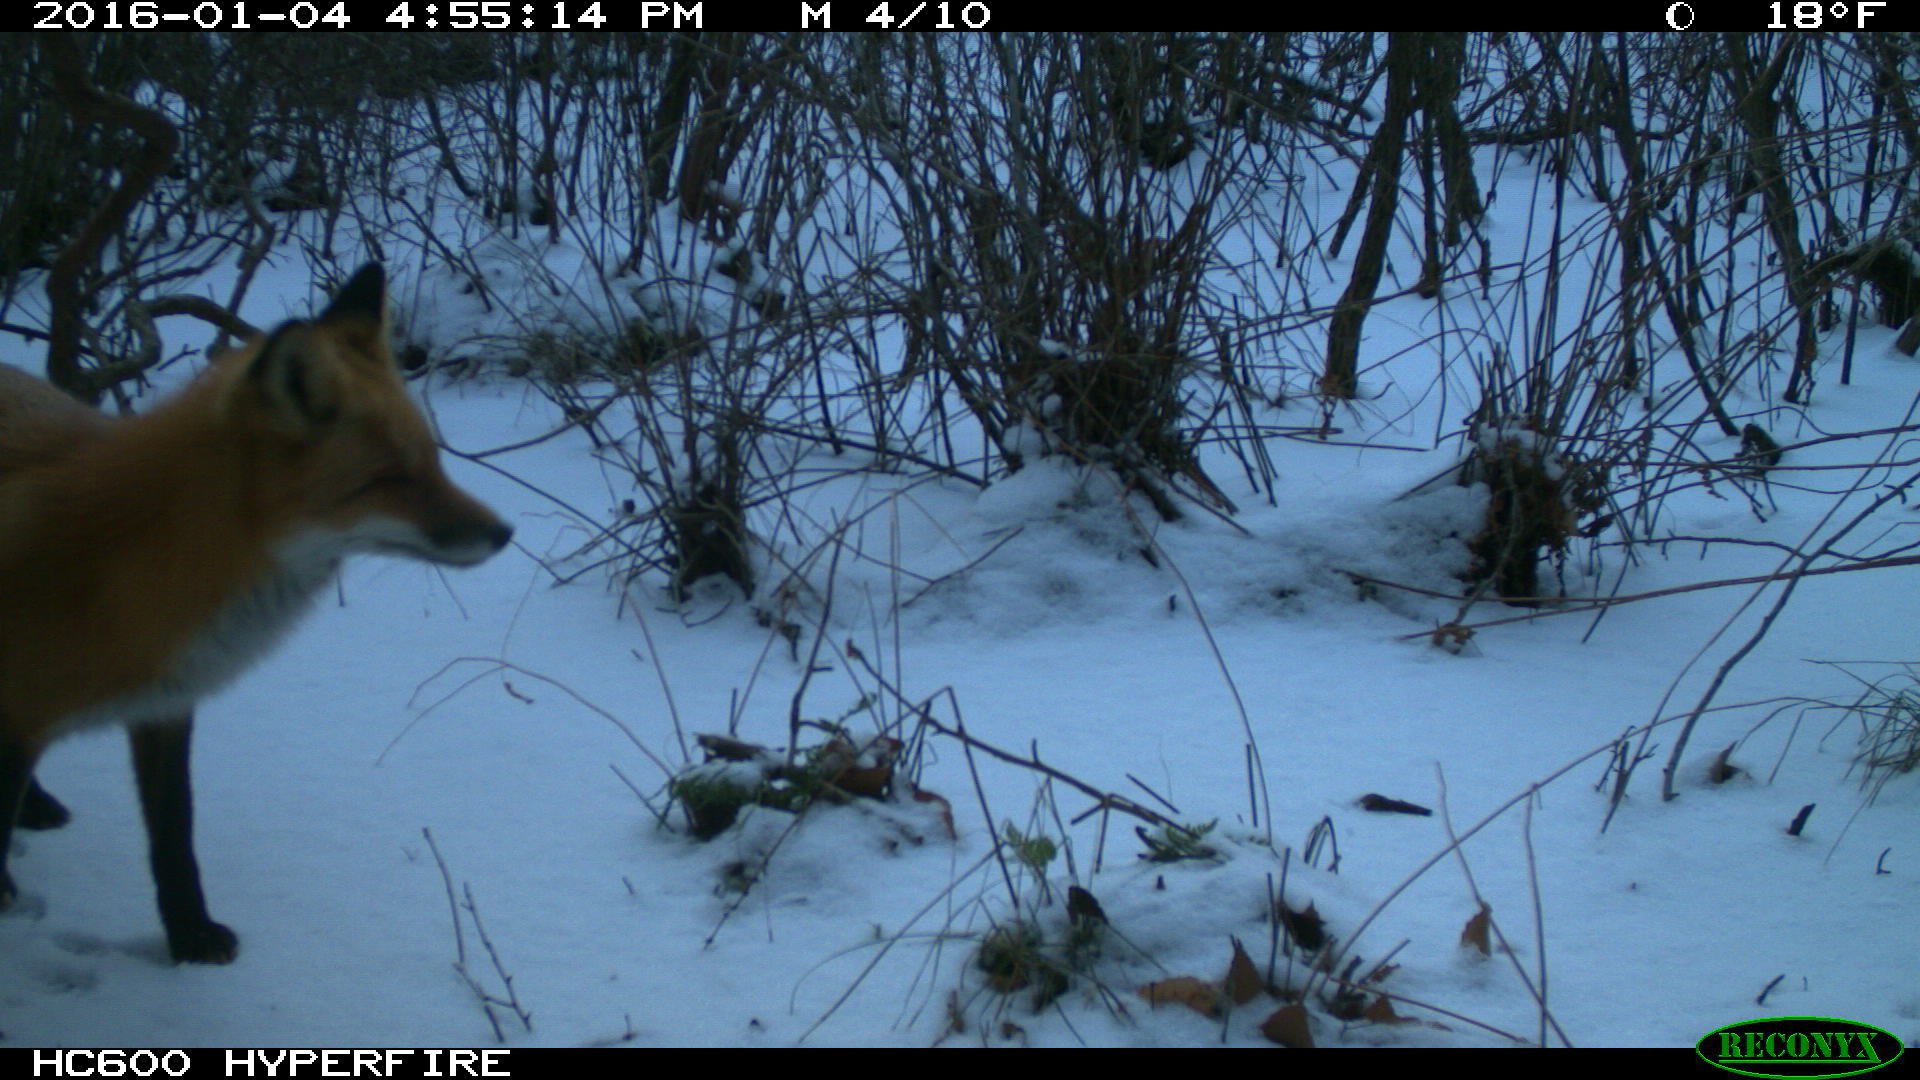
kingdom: Animalia
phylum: Chordata
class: Mammalia
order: Carnivora
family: Canidae
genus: Vulpes
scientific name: Vulpes vulpes
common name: Red fox
